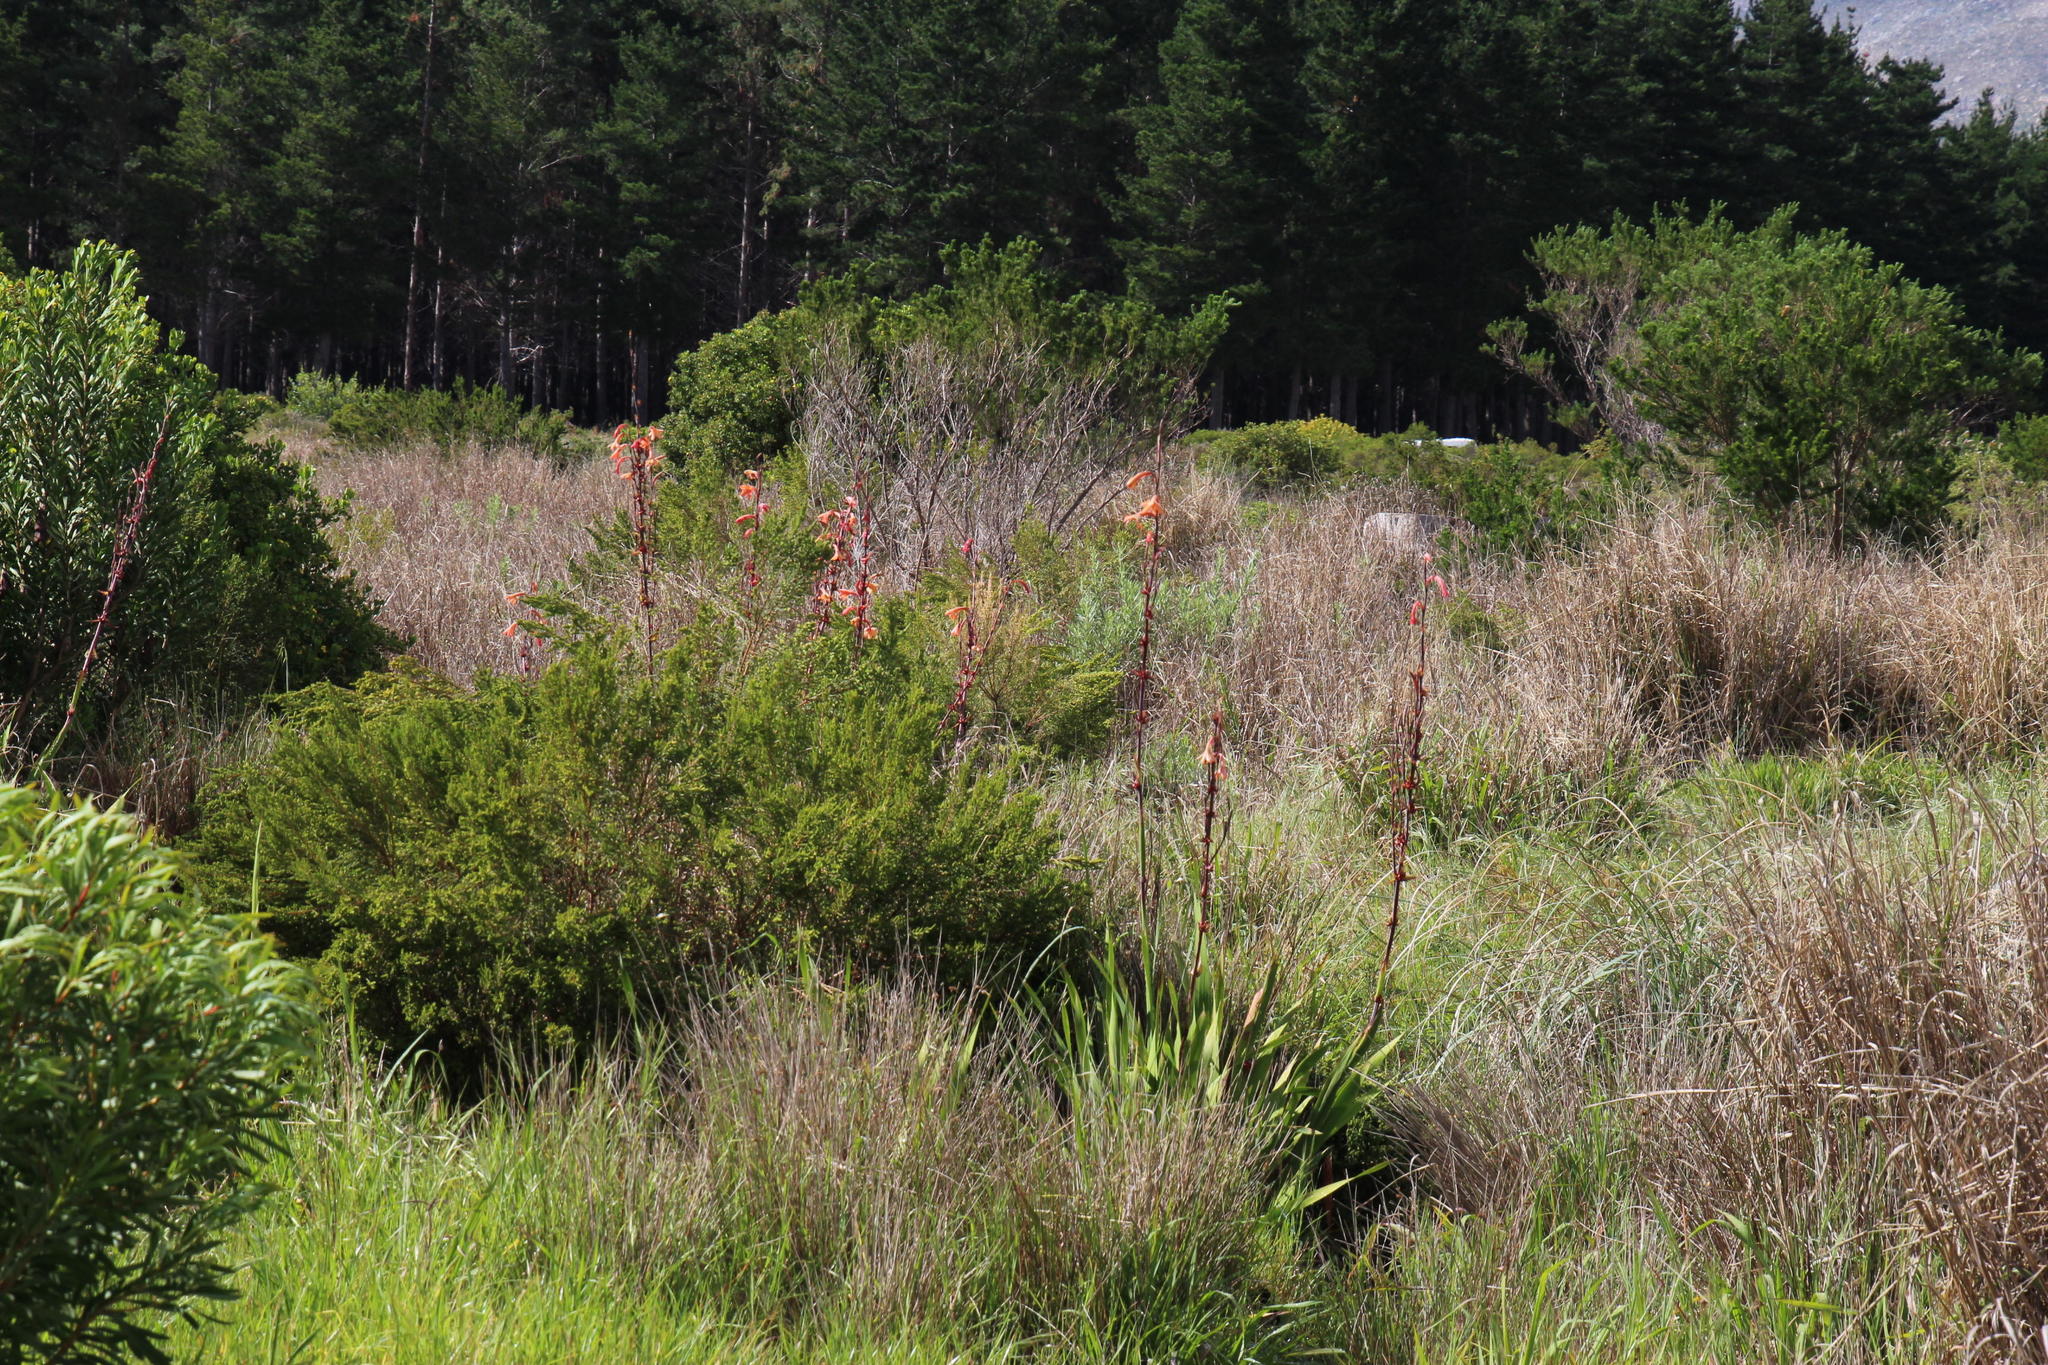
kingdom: Plantae
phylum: Tracheophyta
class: Liliopsida
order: Asparagales
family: Iridaceae
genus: Watsonia
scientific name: Watsonia meriana
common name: Bulbil bugle-lily
